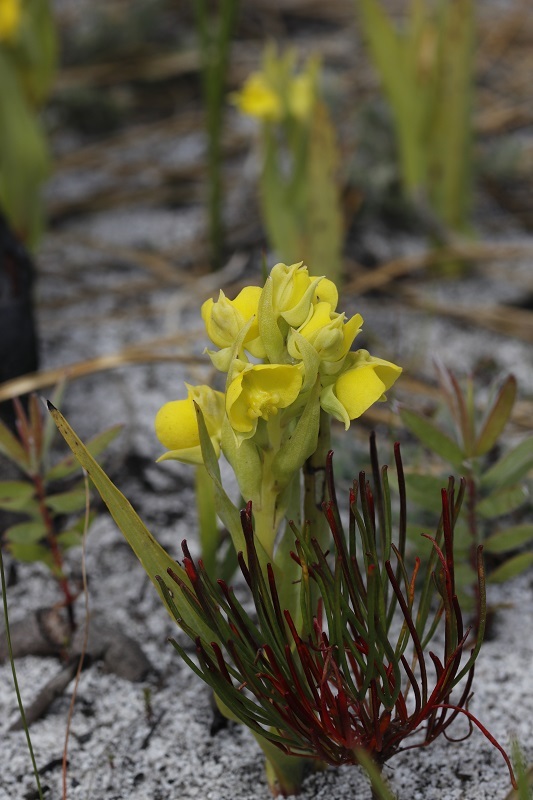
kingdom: Plantae
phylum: Tracheophyta
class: Liliopsida
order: Asparagales
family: Orchidaceae
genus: Pterygodium
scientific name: Pterygodium acutifolium
